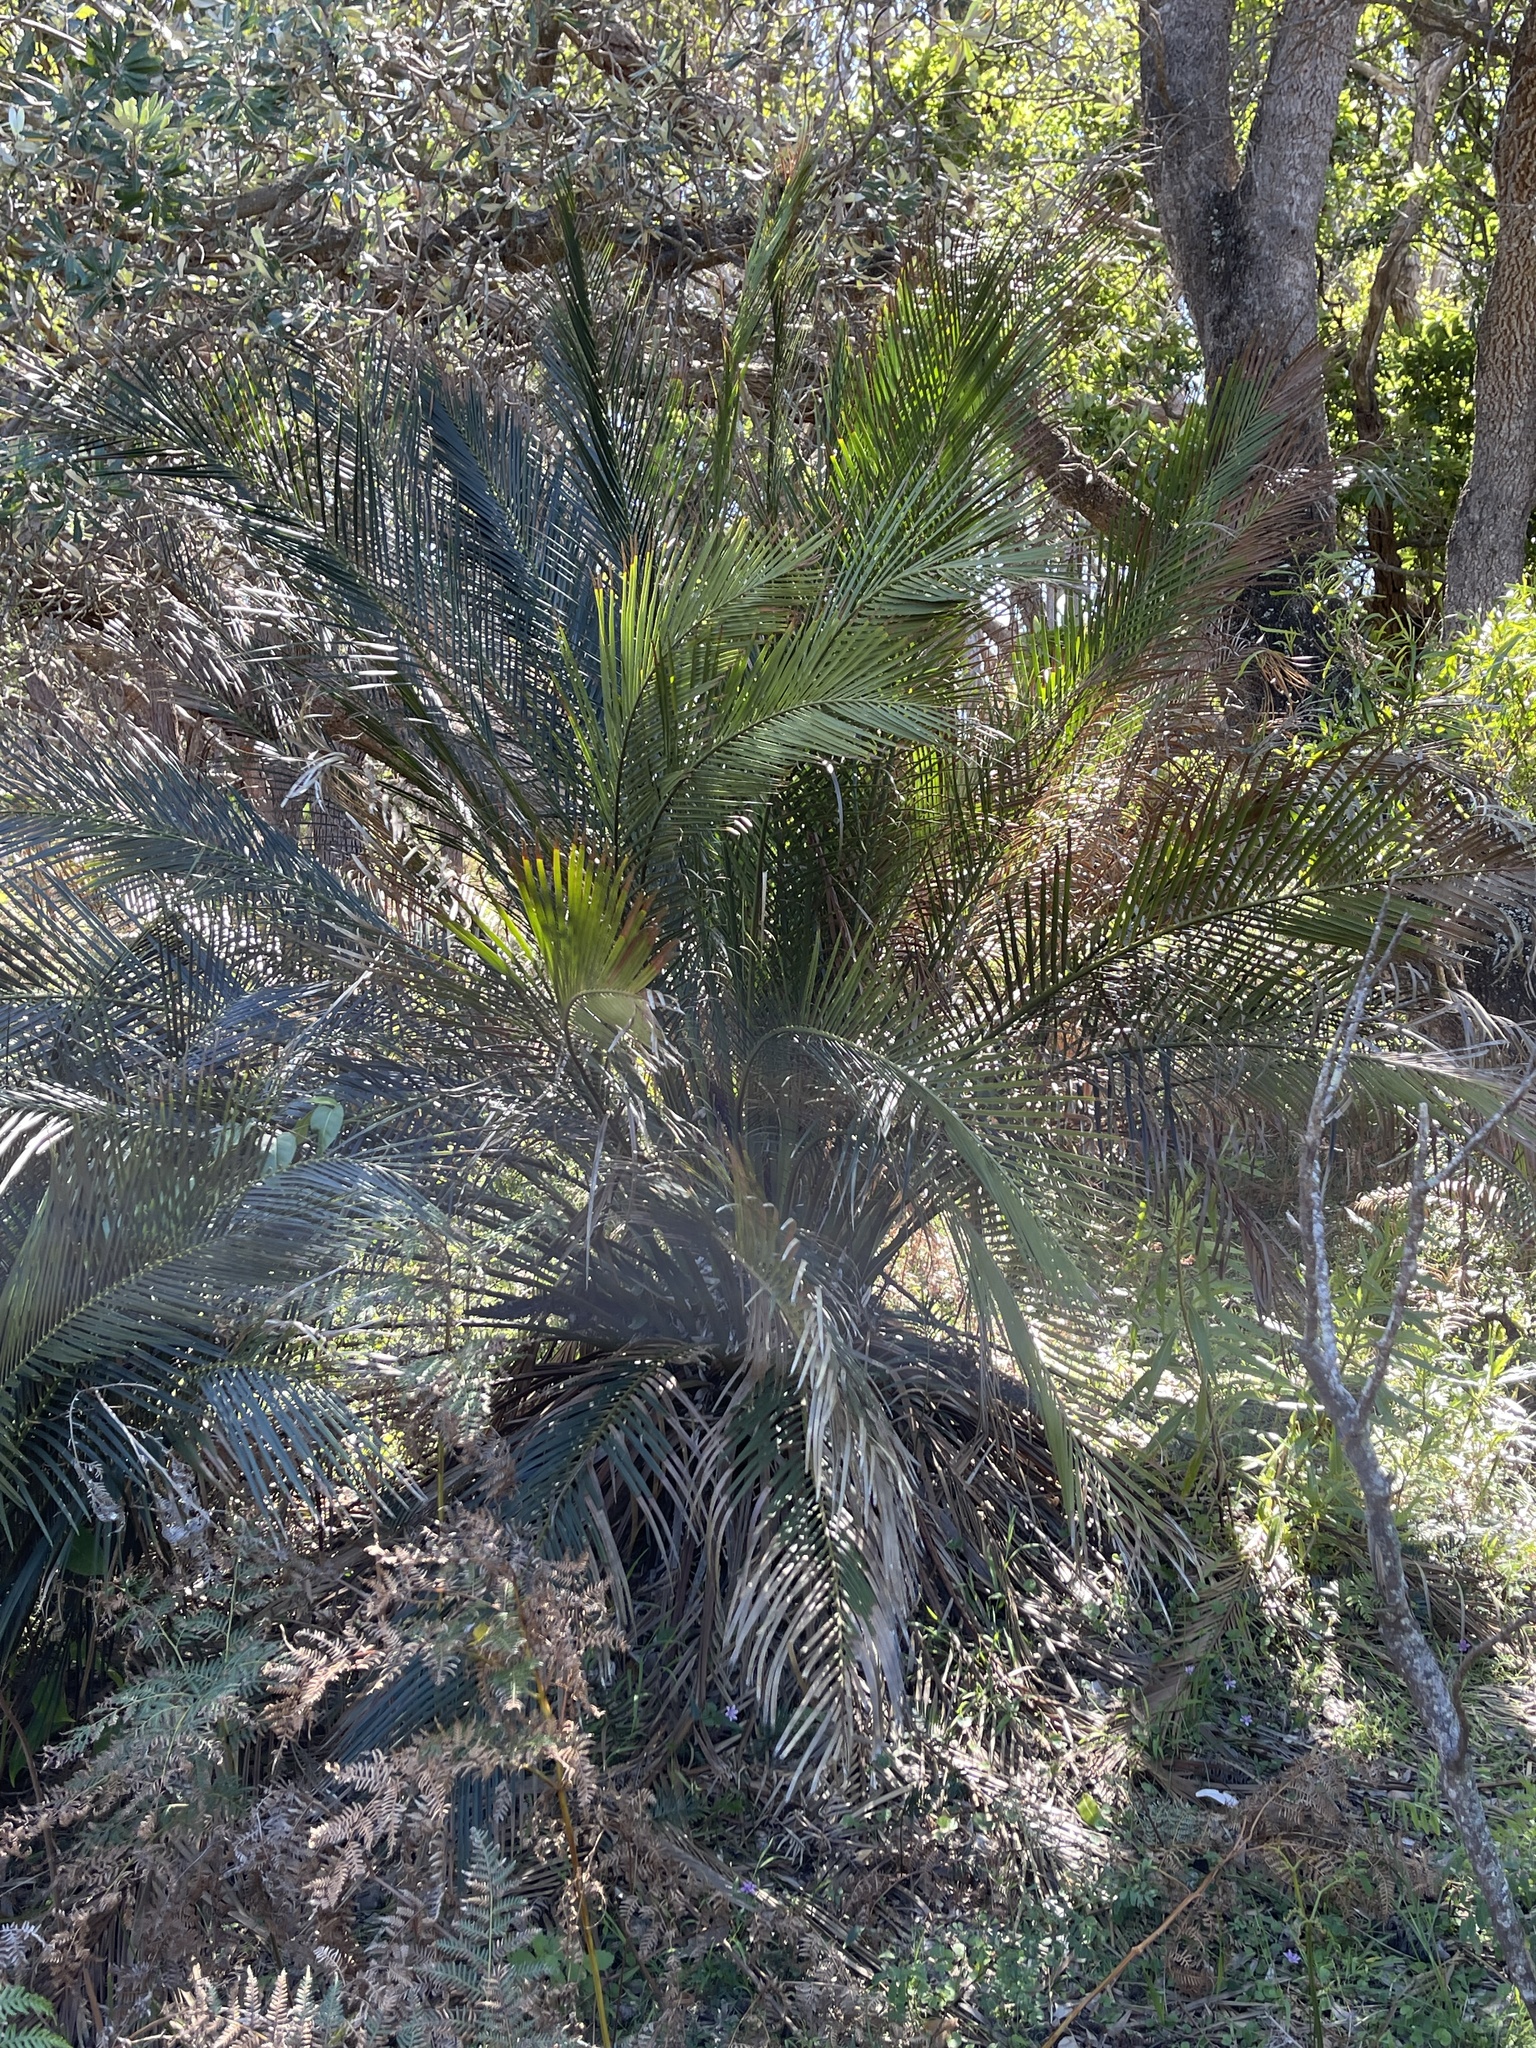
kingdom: Plantae
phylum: Tracheophyta
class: Cycadopsida
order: Cycadales
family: Zamiaceae
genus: Macrozamia
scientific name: Macrozamia communis
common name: Burrawong
